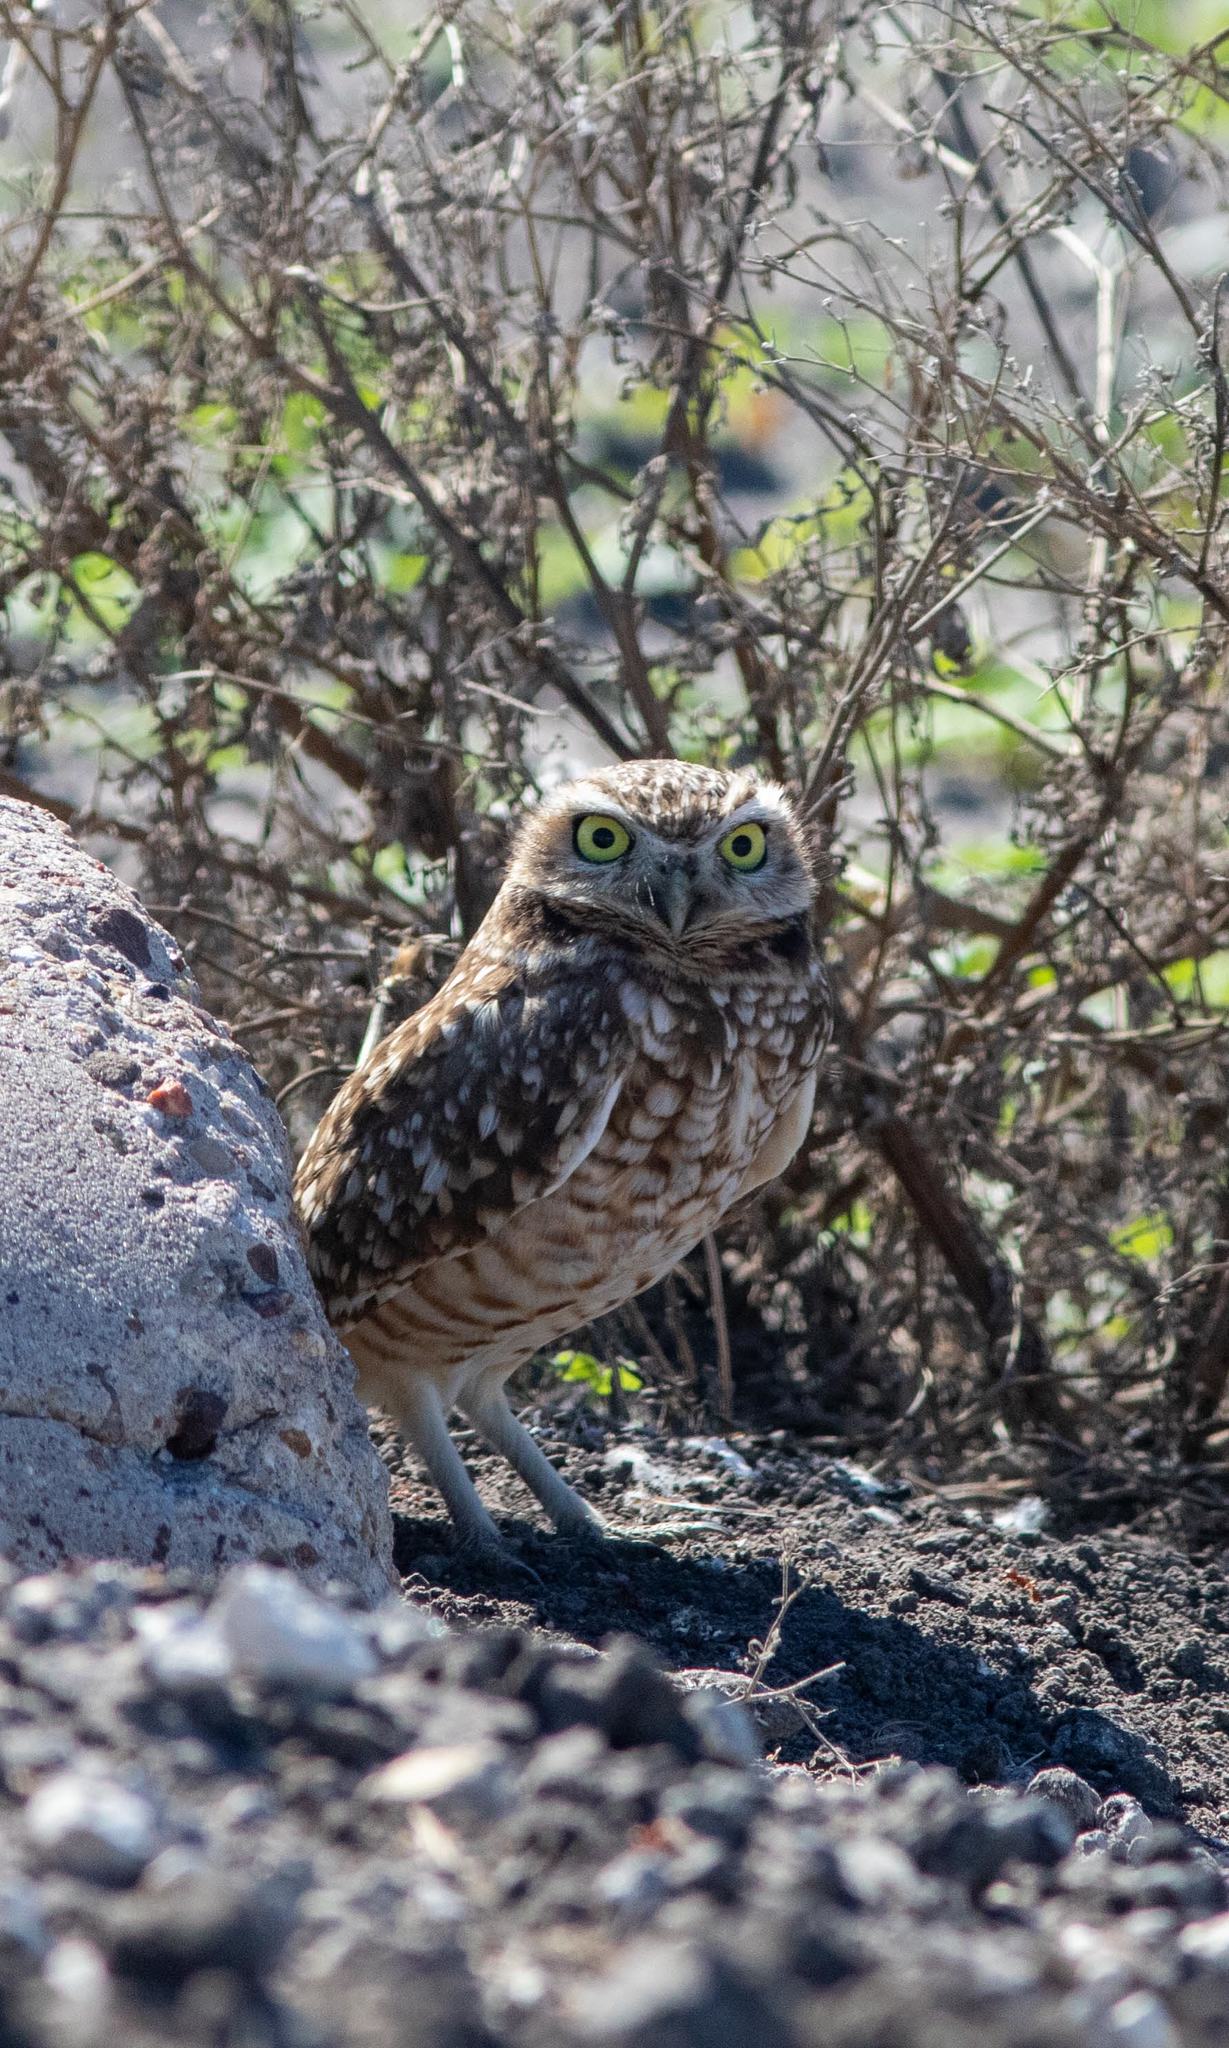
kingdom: Animalia
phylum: Chordata
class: Aves
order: Strigiformes
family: Strigidae
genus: Athene
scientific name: Athene cunicularia
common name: Burrowing owl
